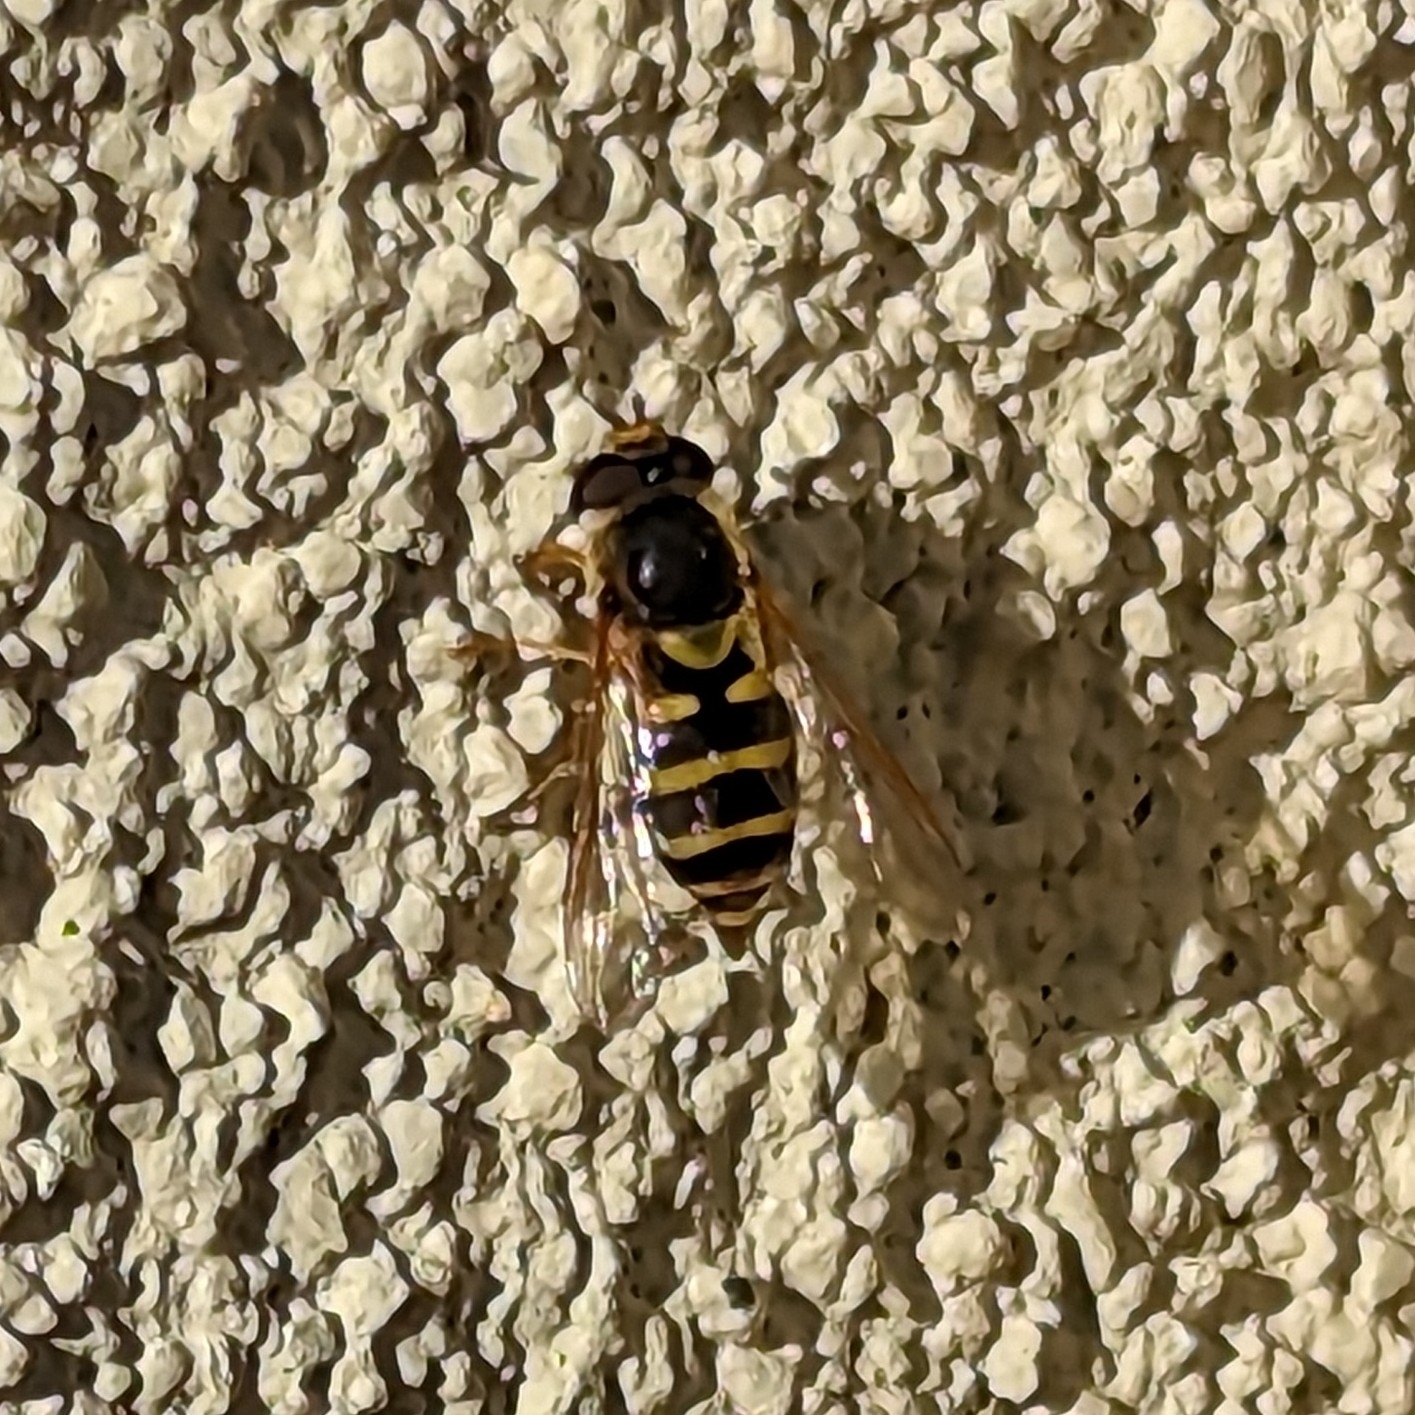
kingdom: Animalia
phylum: Arthropoda
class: Insecta
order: Diptera
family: Syrphidae
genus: Syrphus
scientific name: Syrphus opinator
